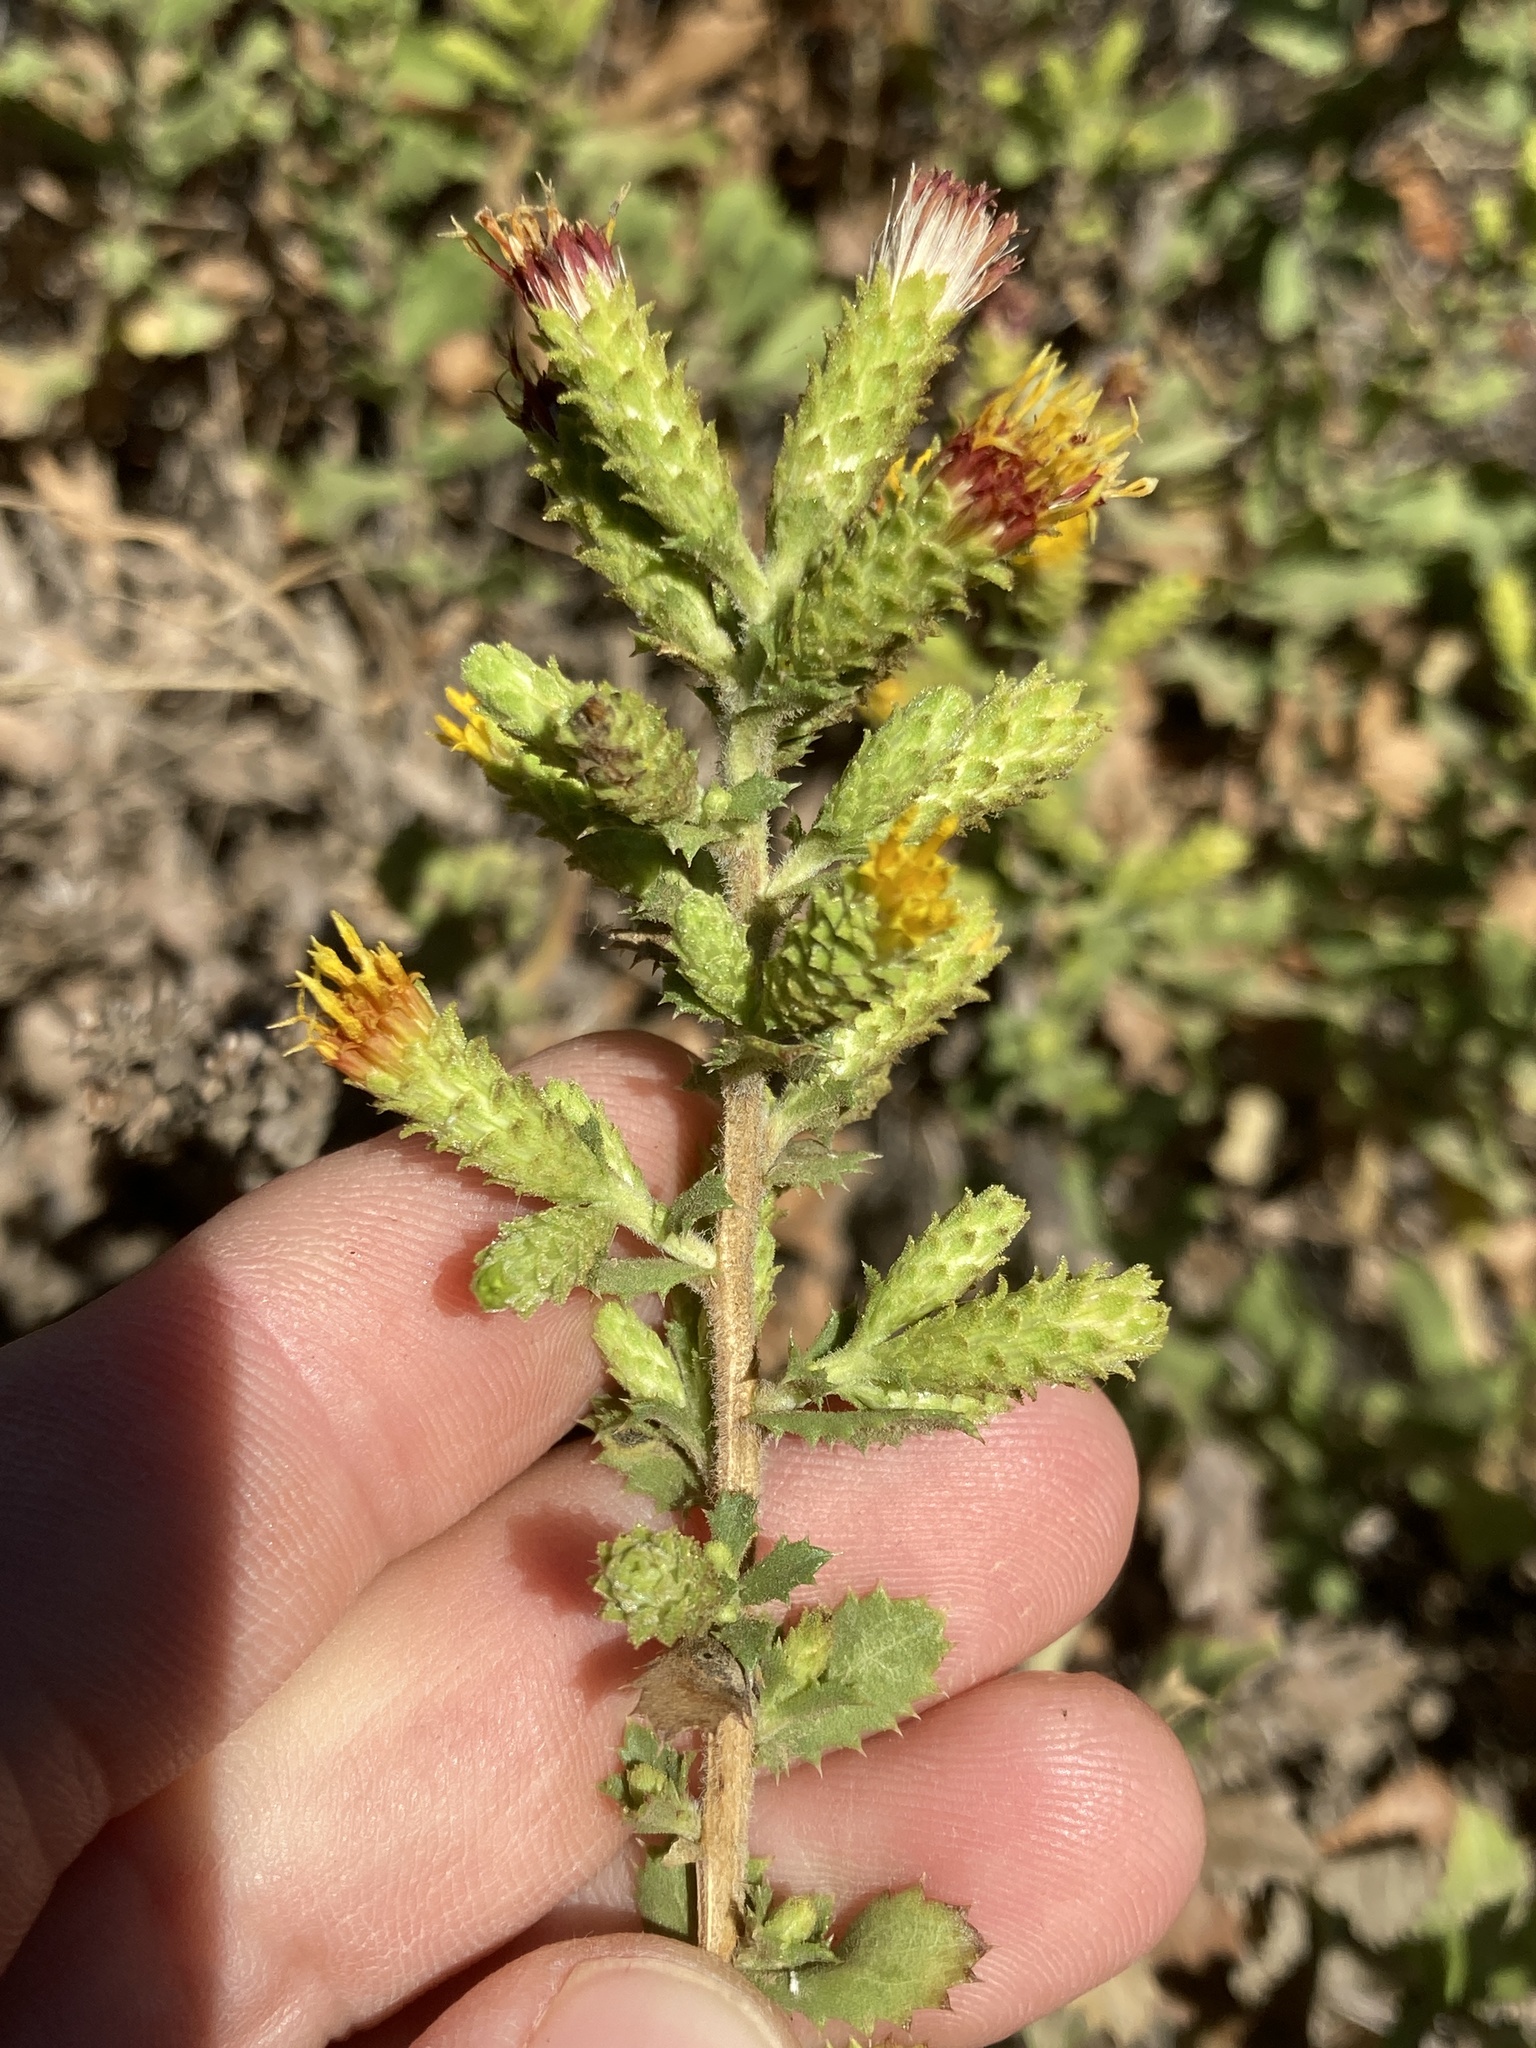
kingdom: Plantae
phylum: Tracheophyta
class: Magnoliopsida
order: Asterales
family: Asteraceae
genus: Hazardia
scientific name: Hazardia squarrosa
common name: Saw-tooth goldenbush
